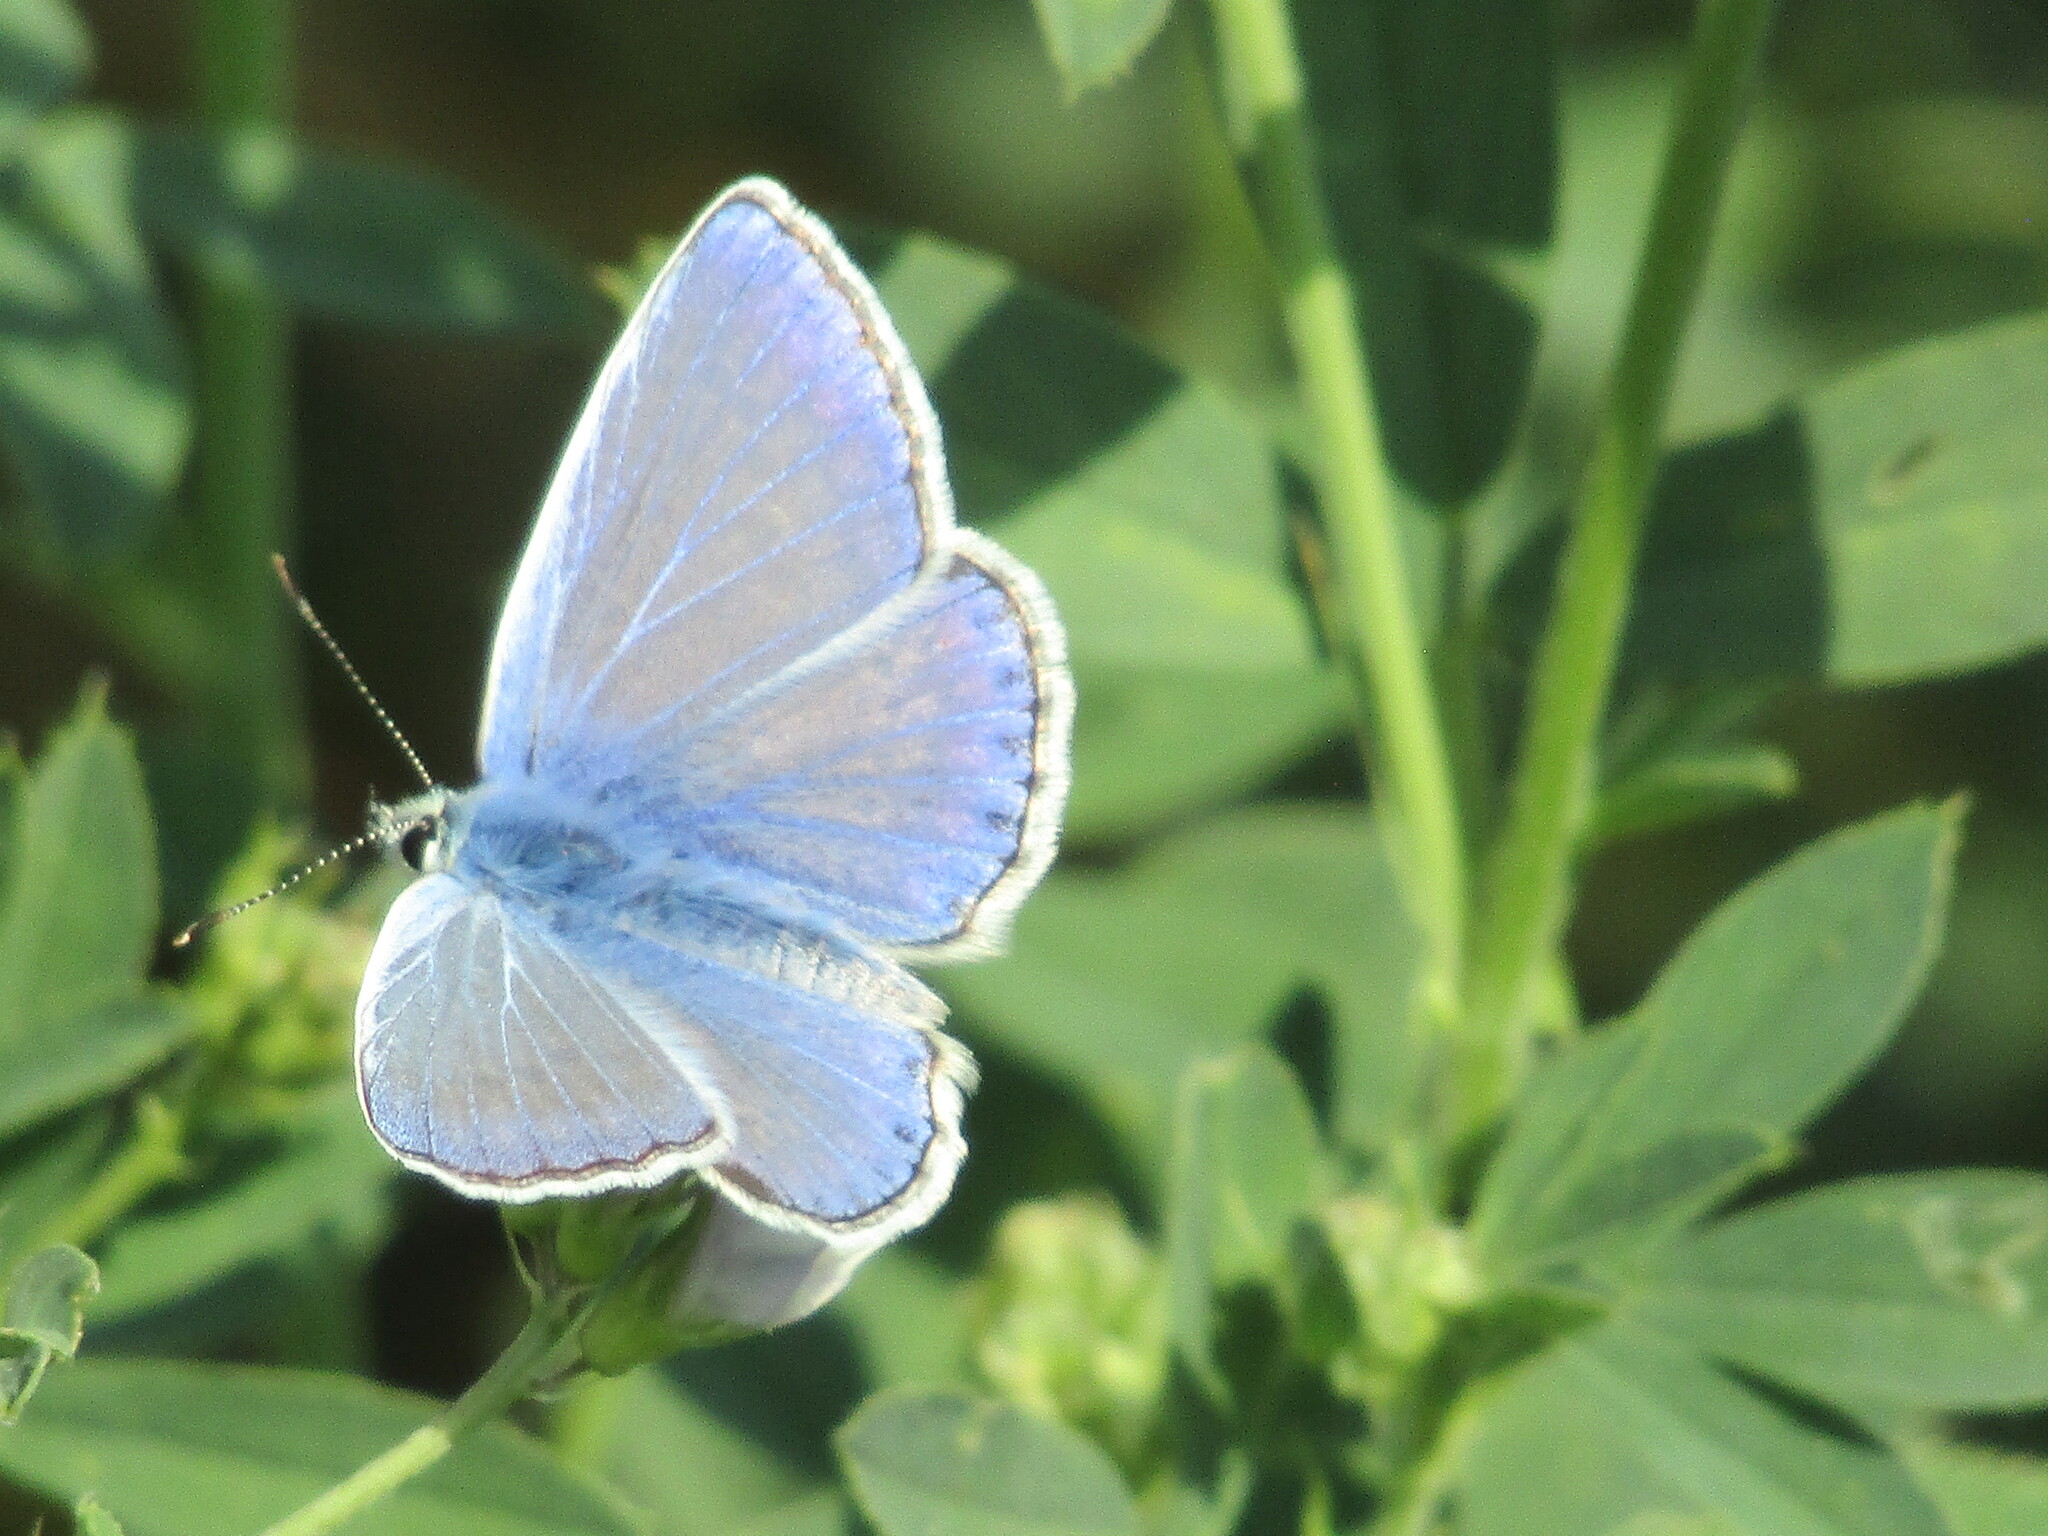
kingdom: Animalia
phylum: Arthropoda
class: Insecta
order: Lepidoptera
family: Lycaenidae
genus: Polyommatus
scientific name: Polyommatus icarus
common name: Common blue
